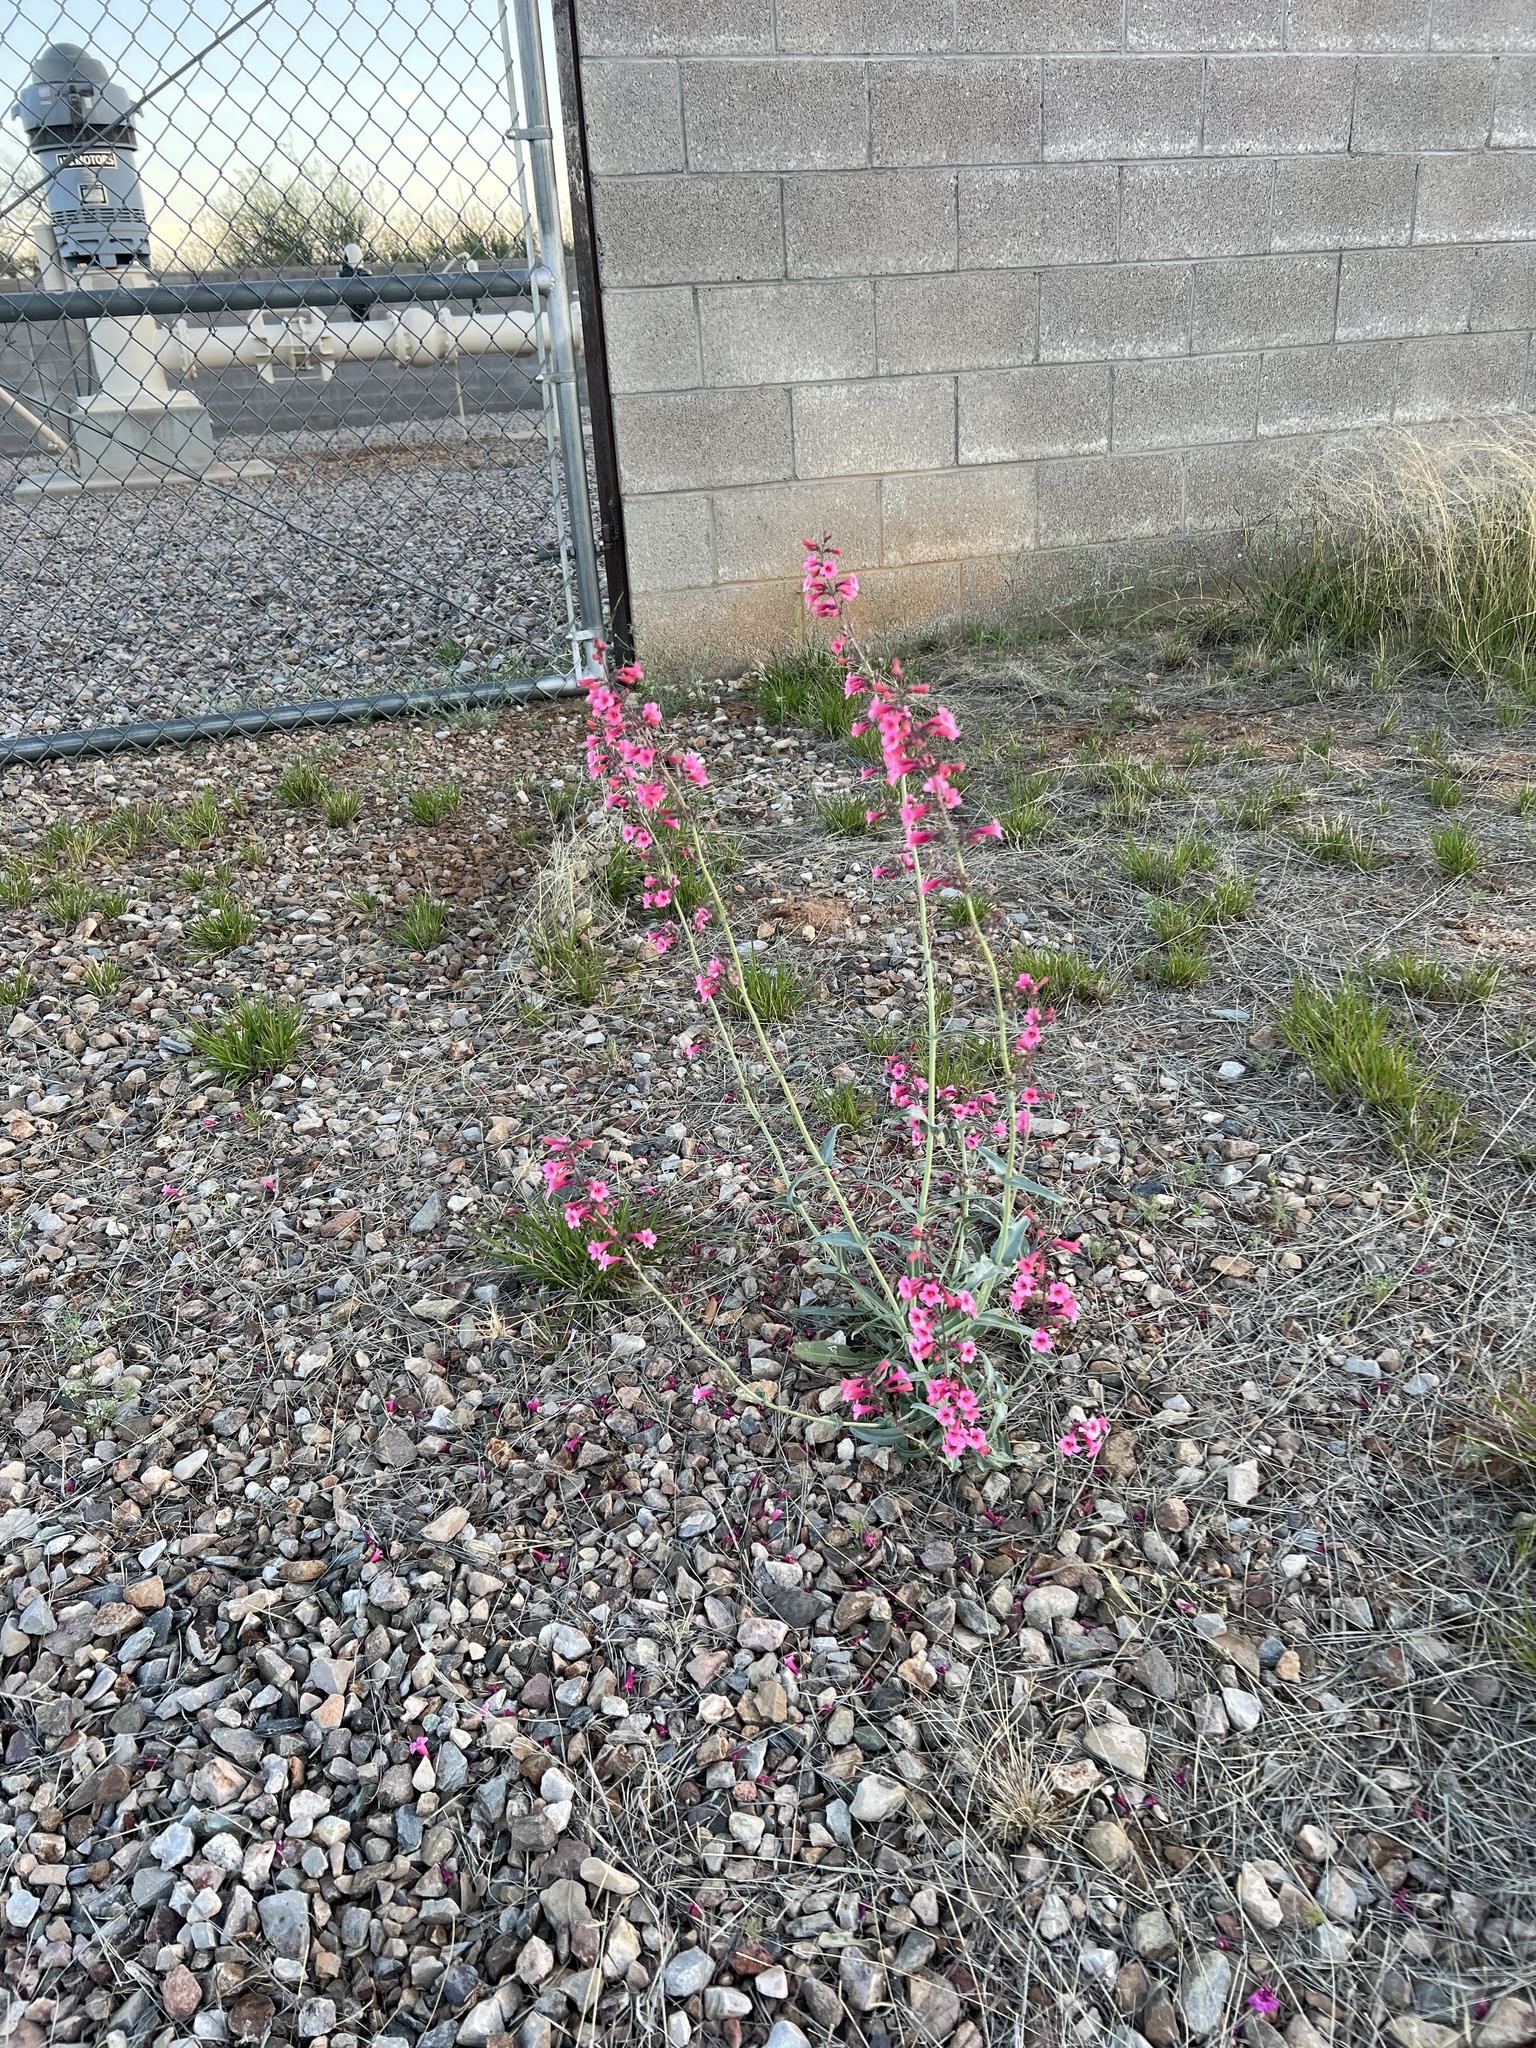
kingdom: Plantae
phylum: Tracheophyta
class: Magnoliopsida
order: Lamiales
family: Plantaginaceae
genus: Penstemon
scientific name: Penstemon parryi
